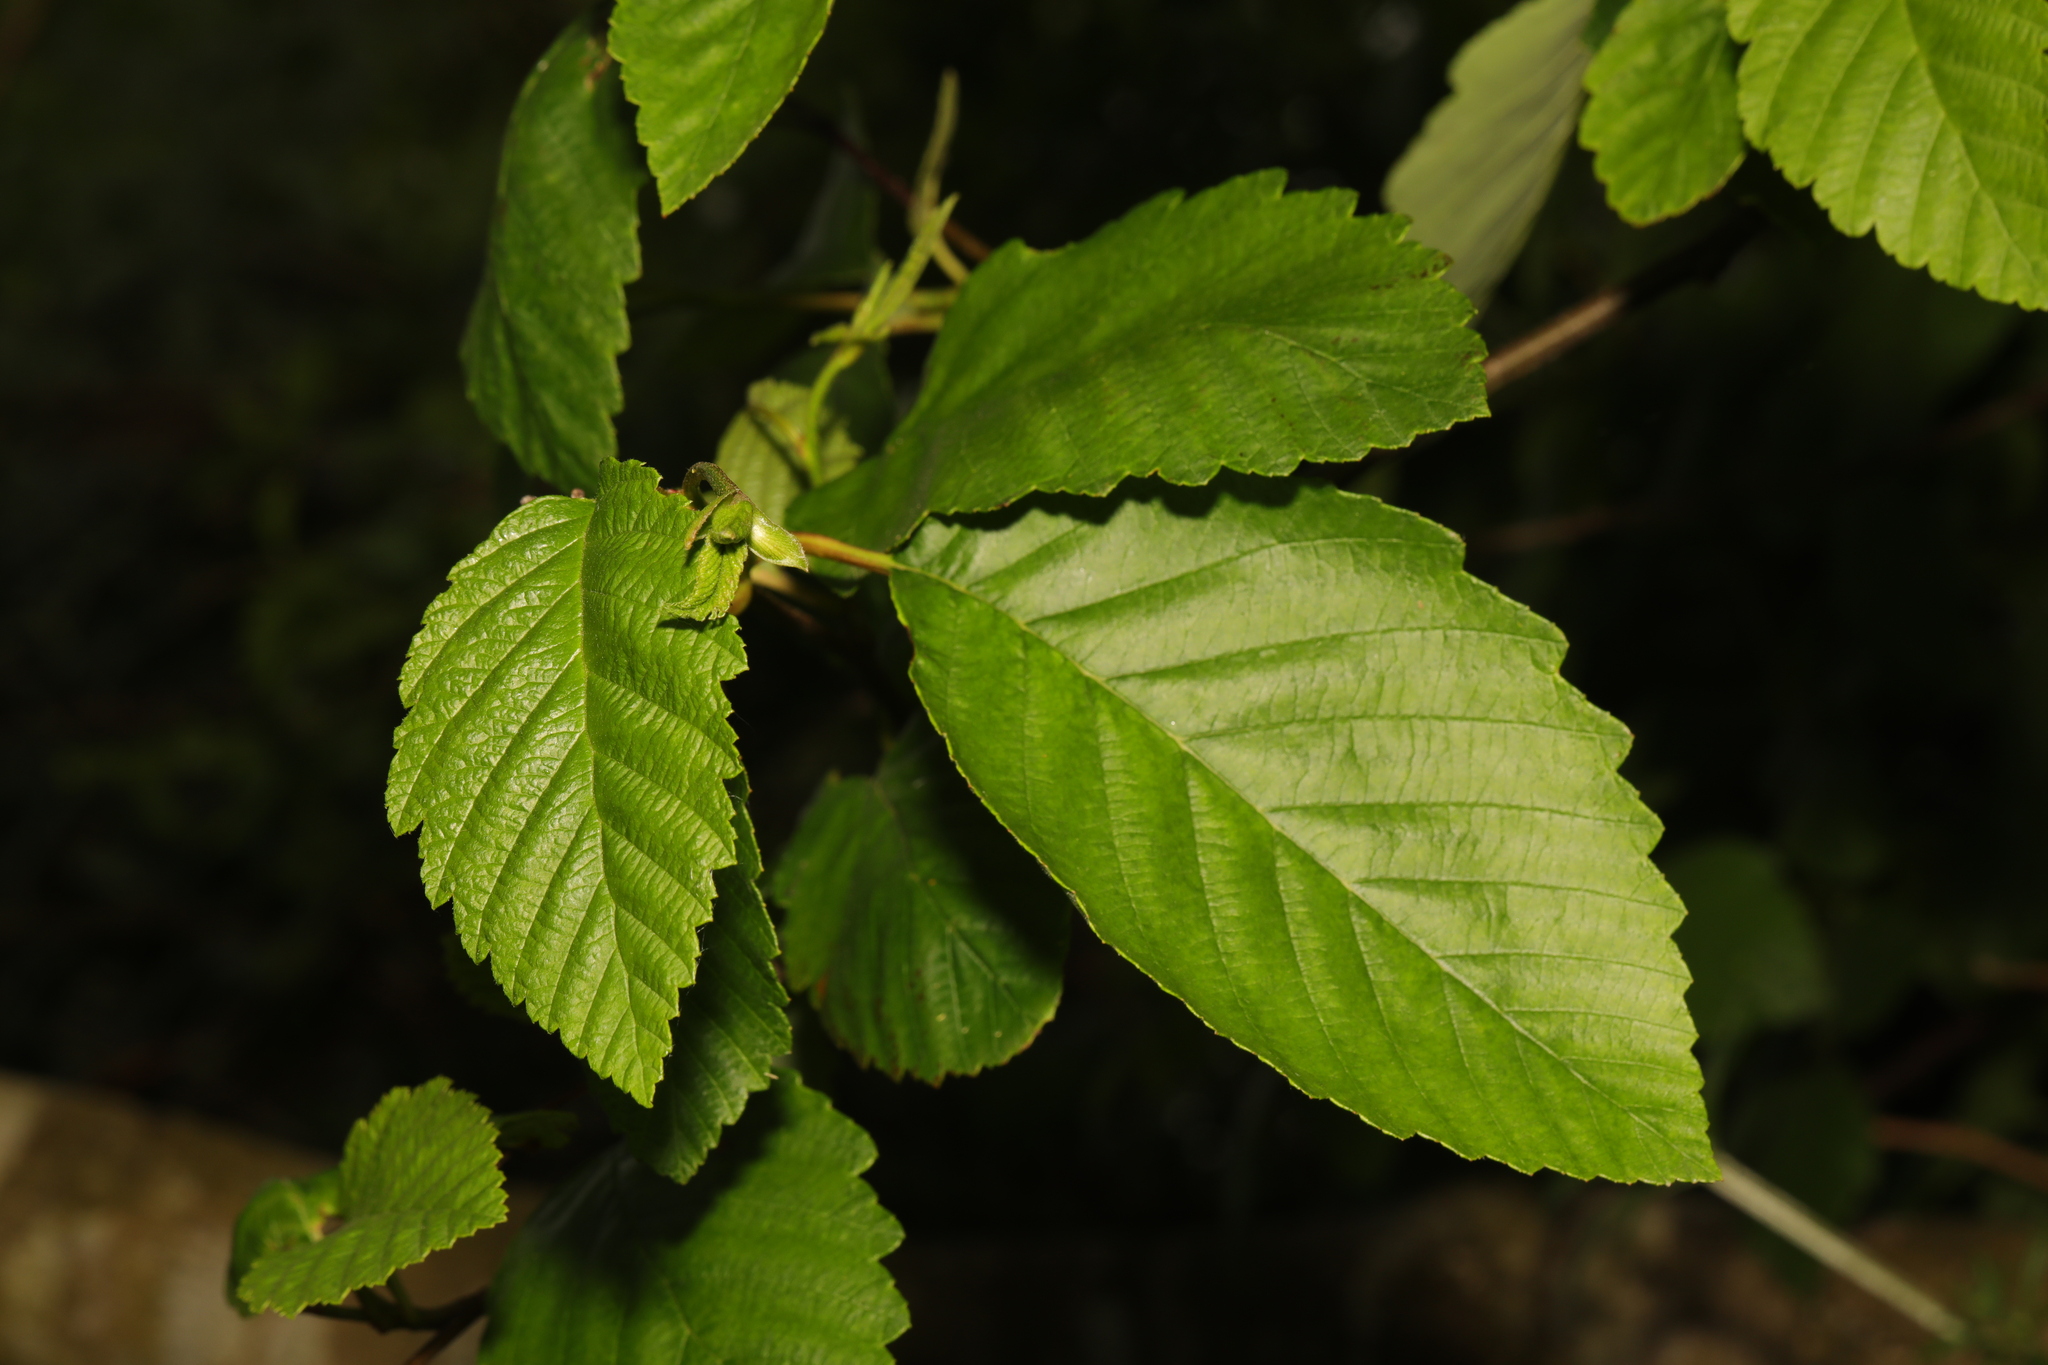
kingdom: Plantae
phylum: Tracheophyta
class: Magnoliopsida
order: Fagales
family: Betulaceae
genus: Alnus
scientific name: Alnus incana
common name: Grey alder
